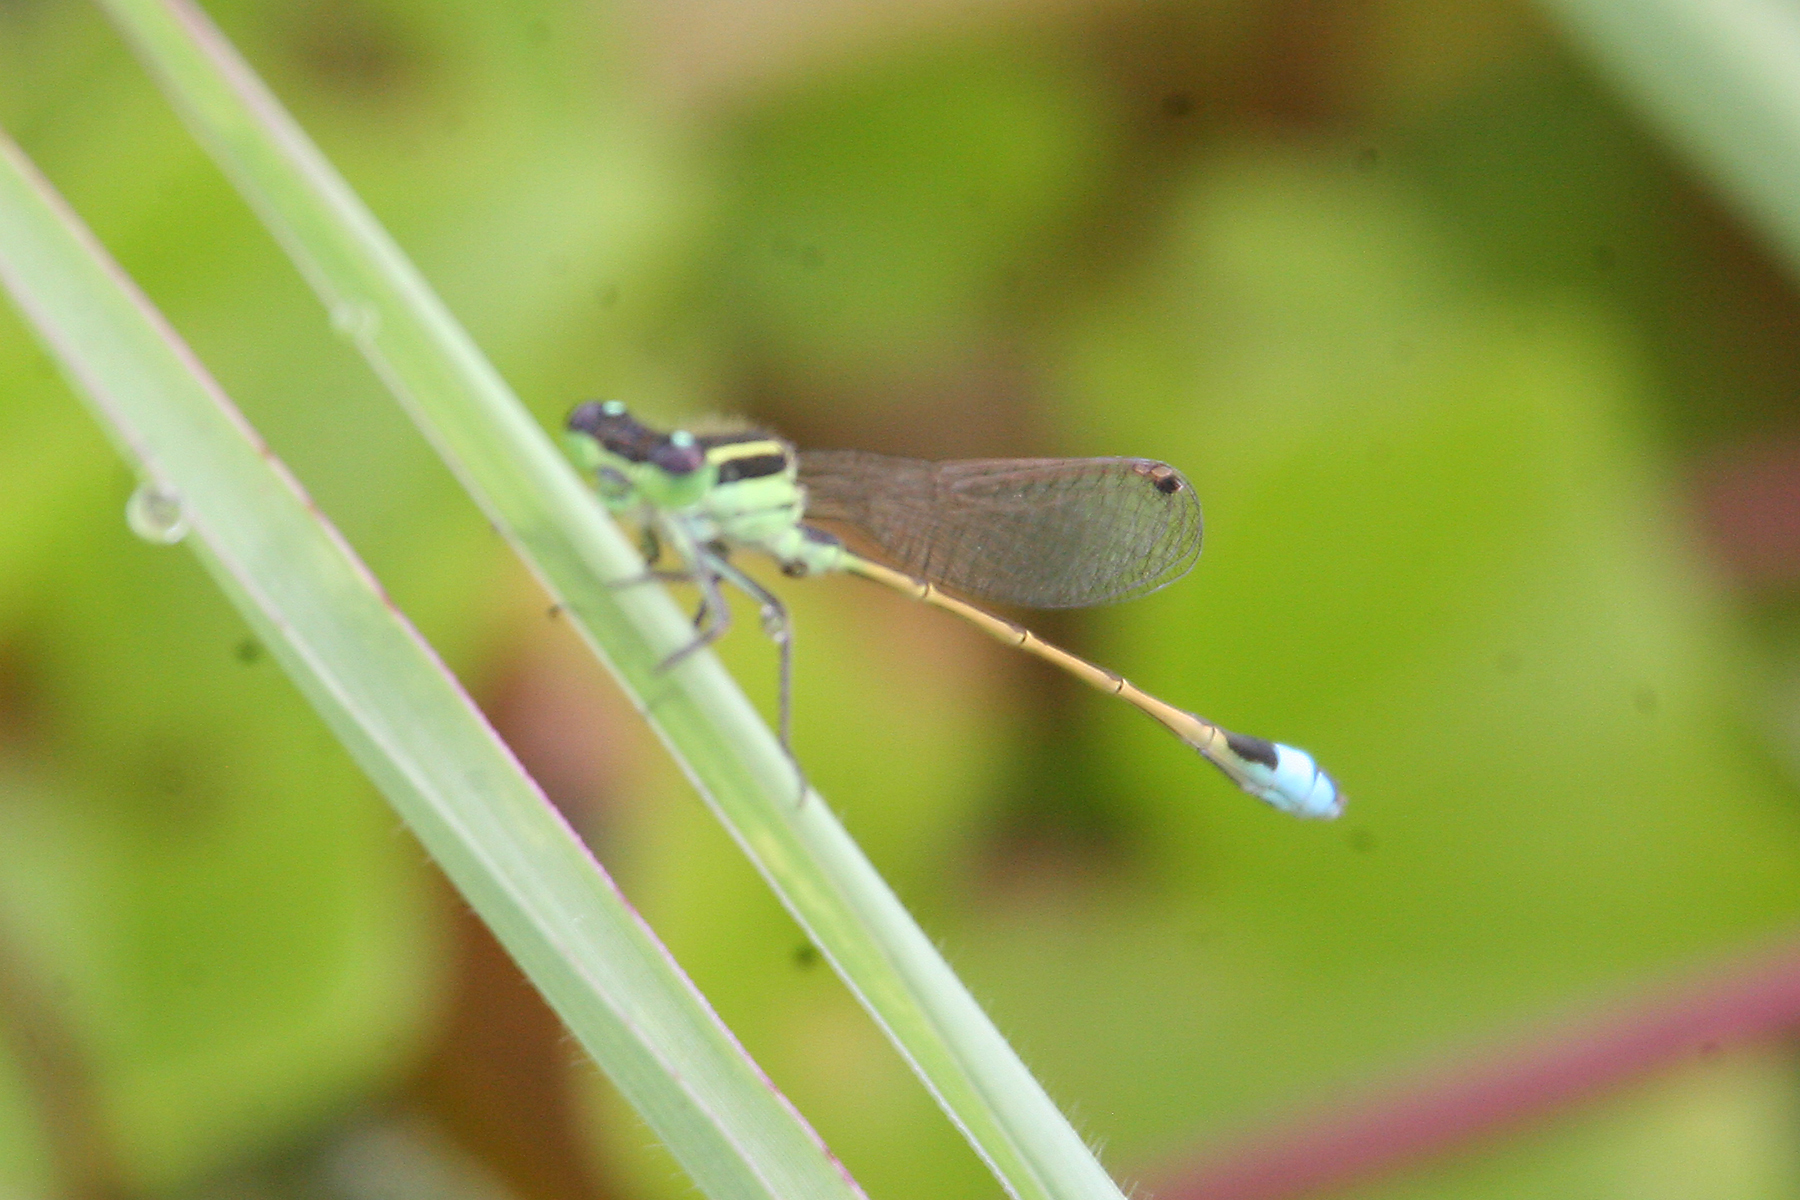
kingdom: Animalia
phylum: Arthropoda
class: Insecta
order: Odonata
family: Coenagrionidae
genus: Ischnura
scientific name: Ischnura ramburii
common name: Rambur's forktail
